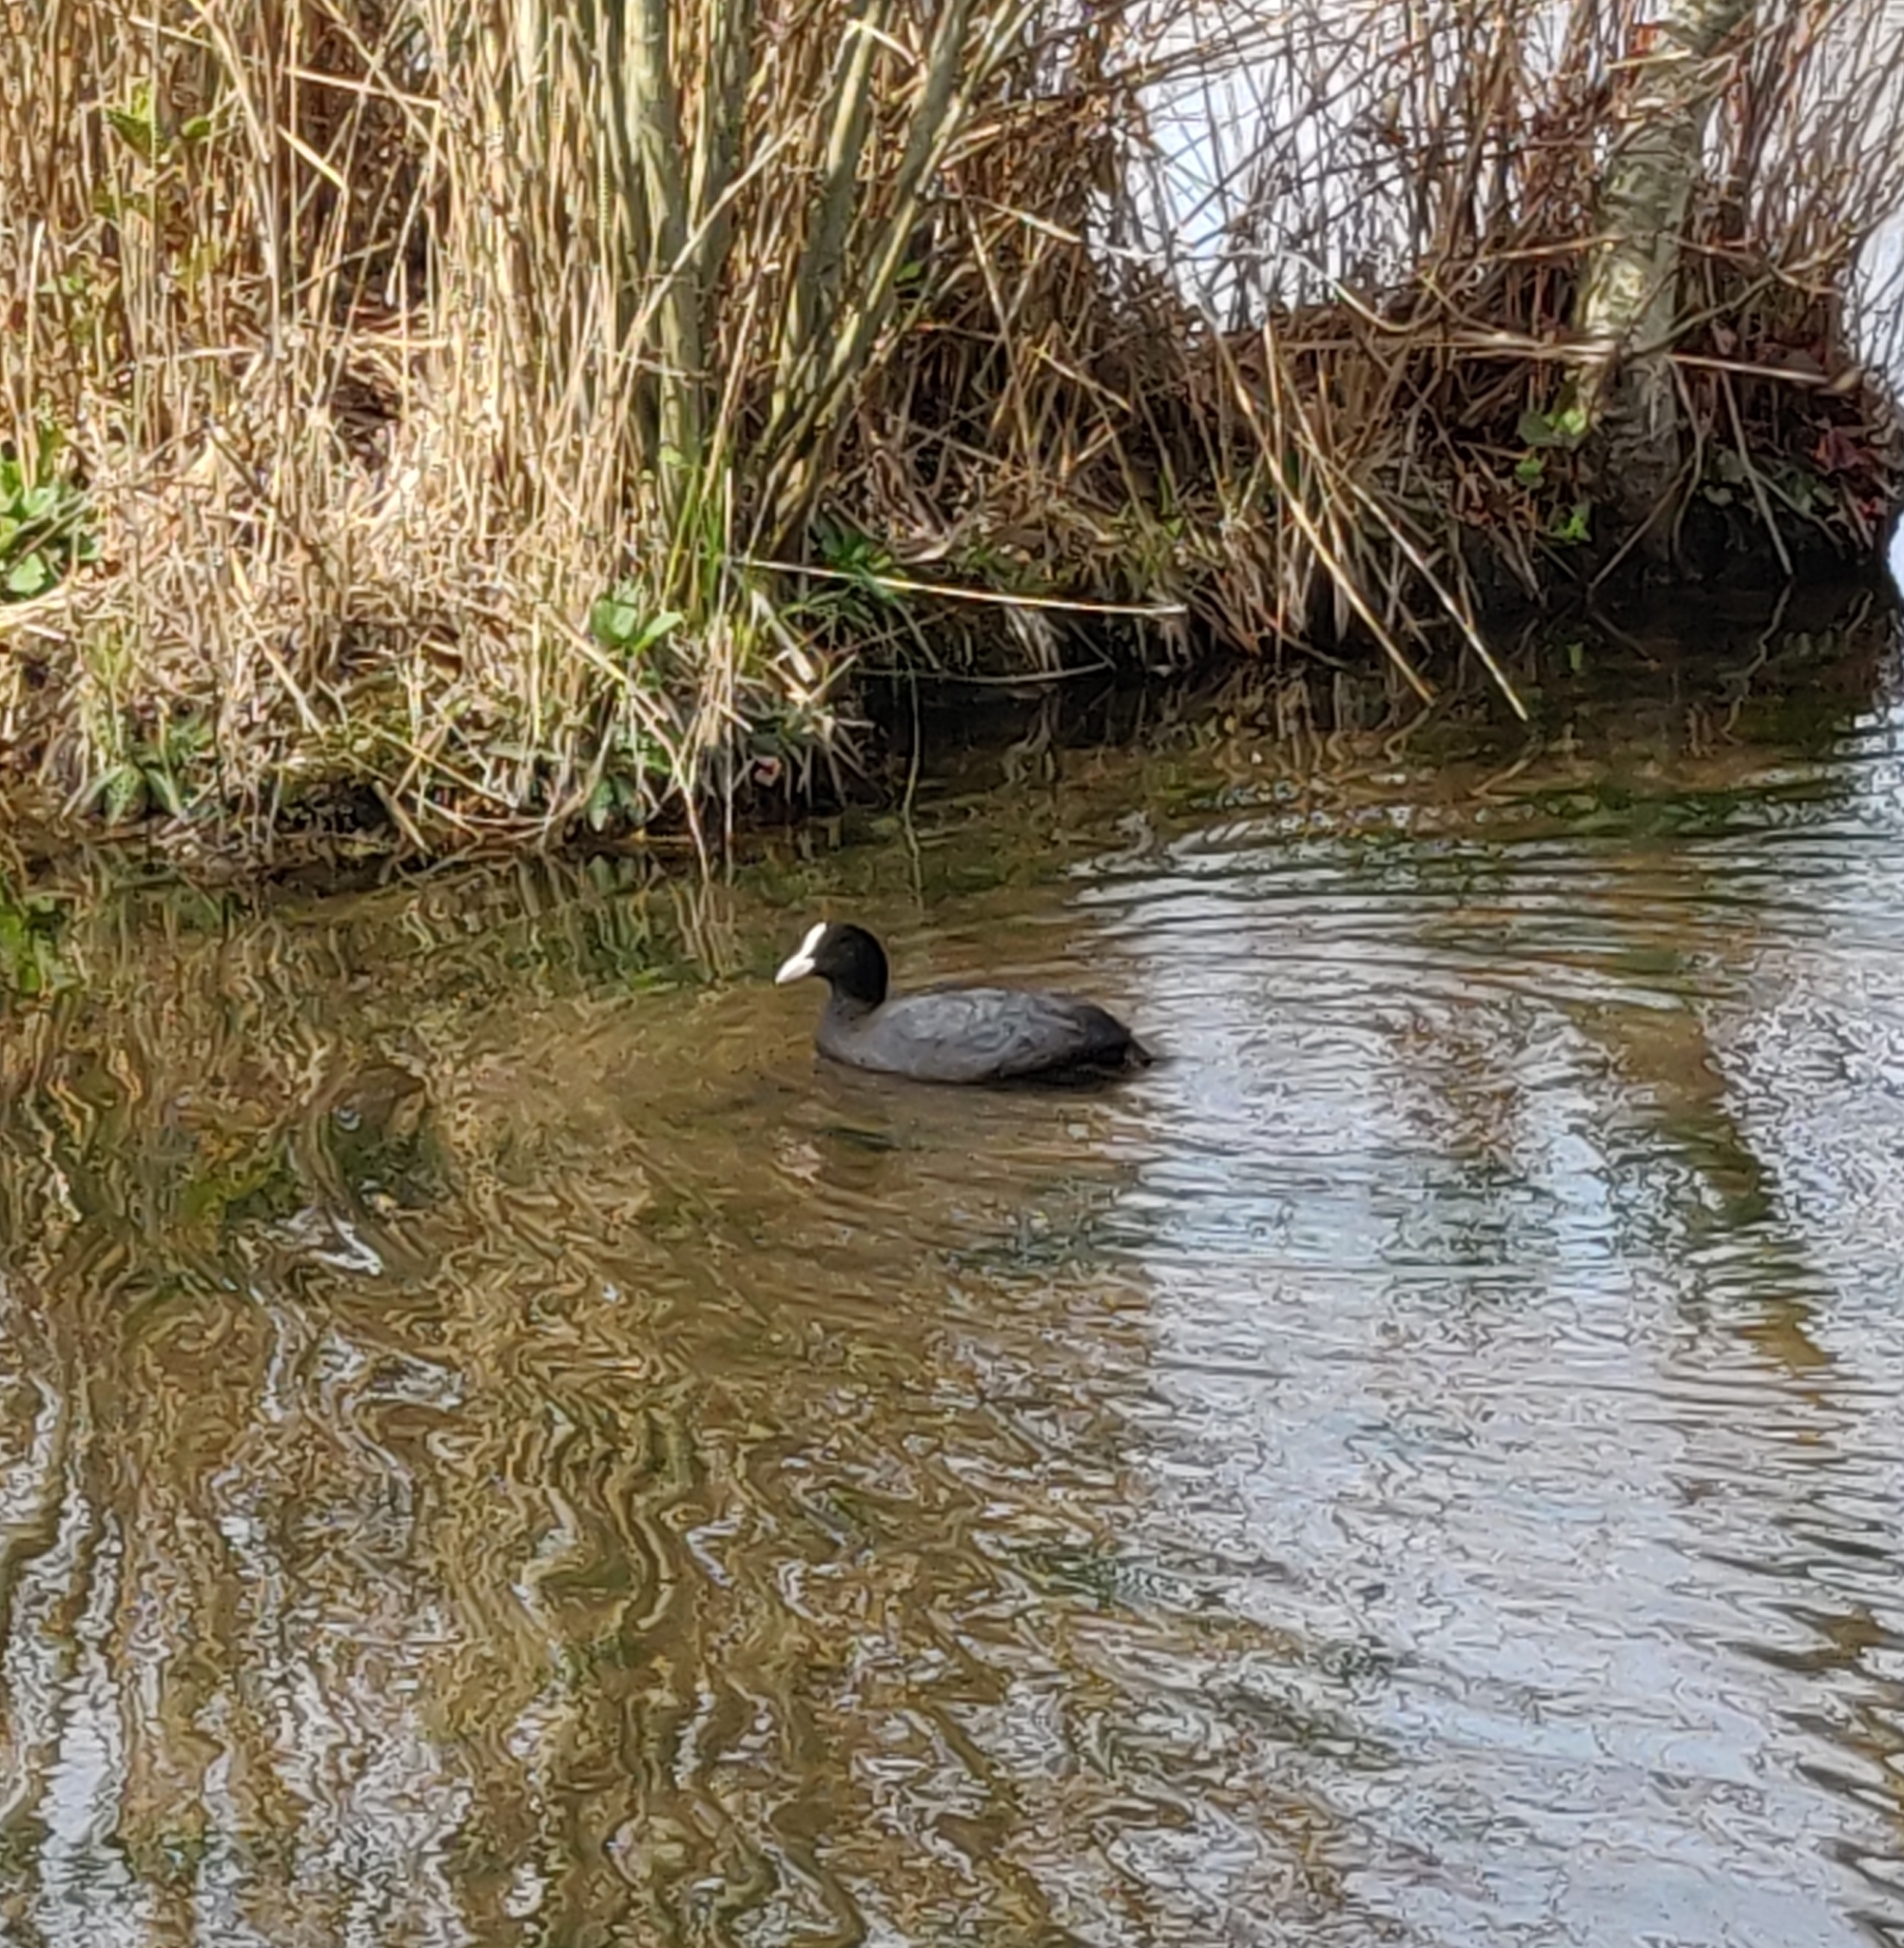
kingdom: Animalia
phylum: Chordata
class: Aves
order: Gruiformes
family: Rallidae
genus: Fulica
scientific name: Fulica atra
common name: Eurasian coot
